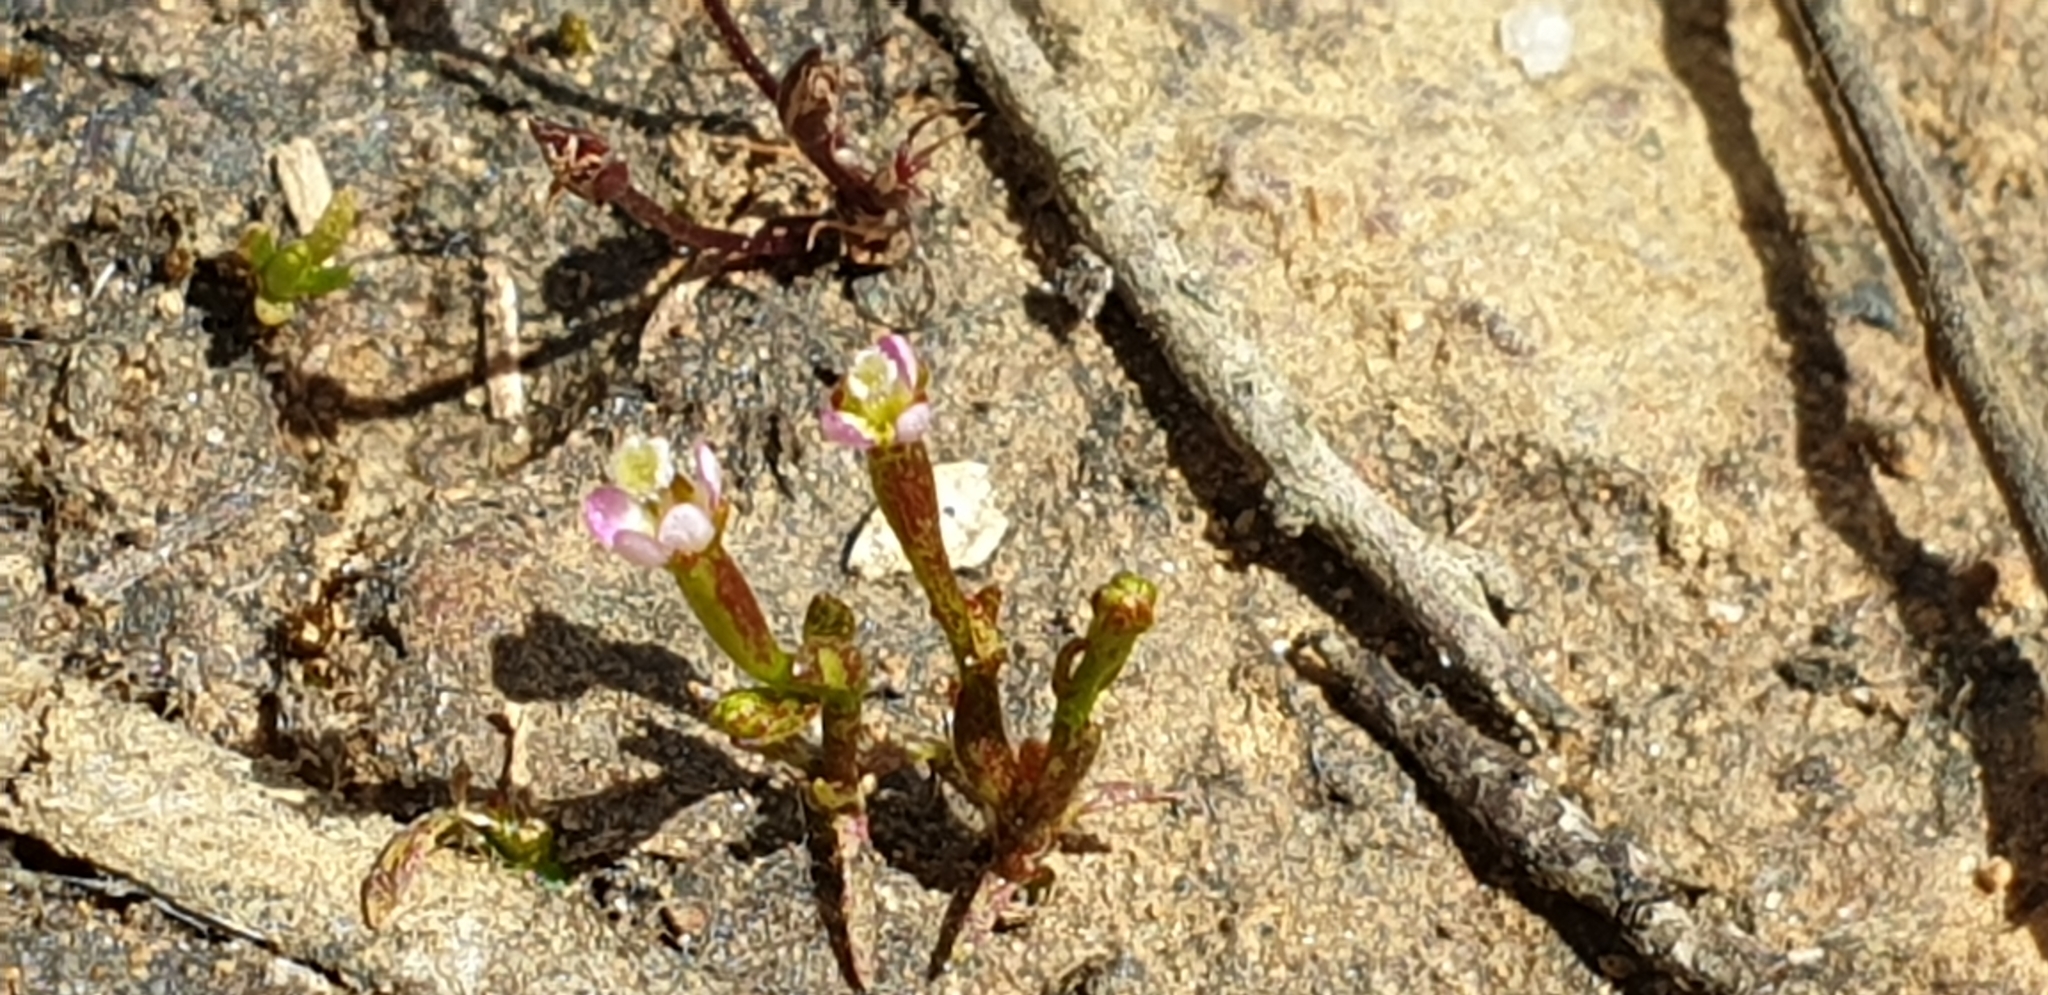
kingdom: Plantae
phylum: Tracheophyta
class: Magnoliopsida
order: Asterales
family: Stylidiaceae
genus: Stylidium
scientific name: Stylidium despectum
